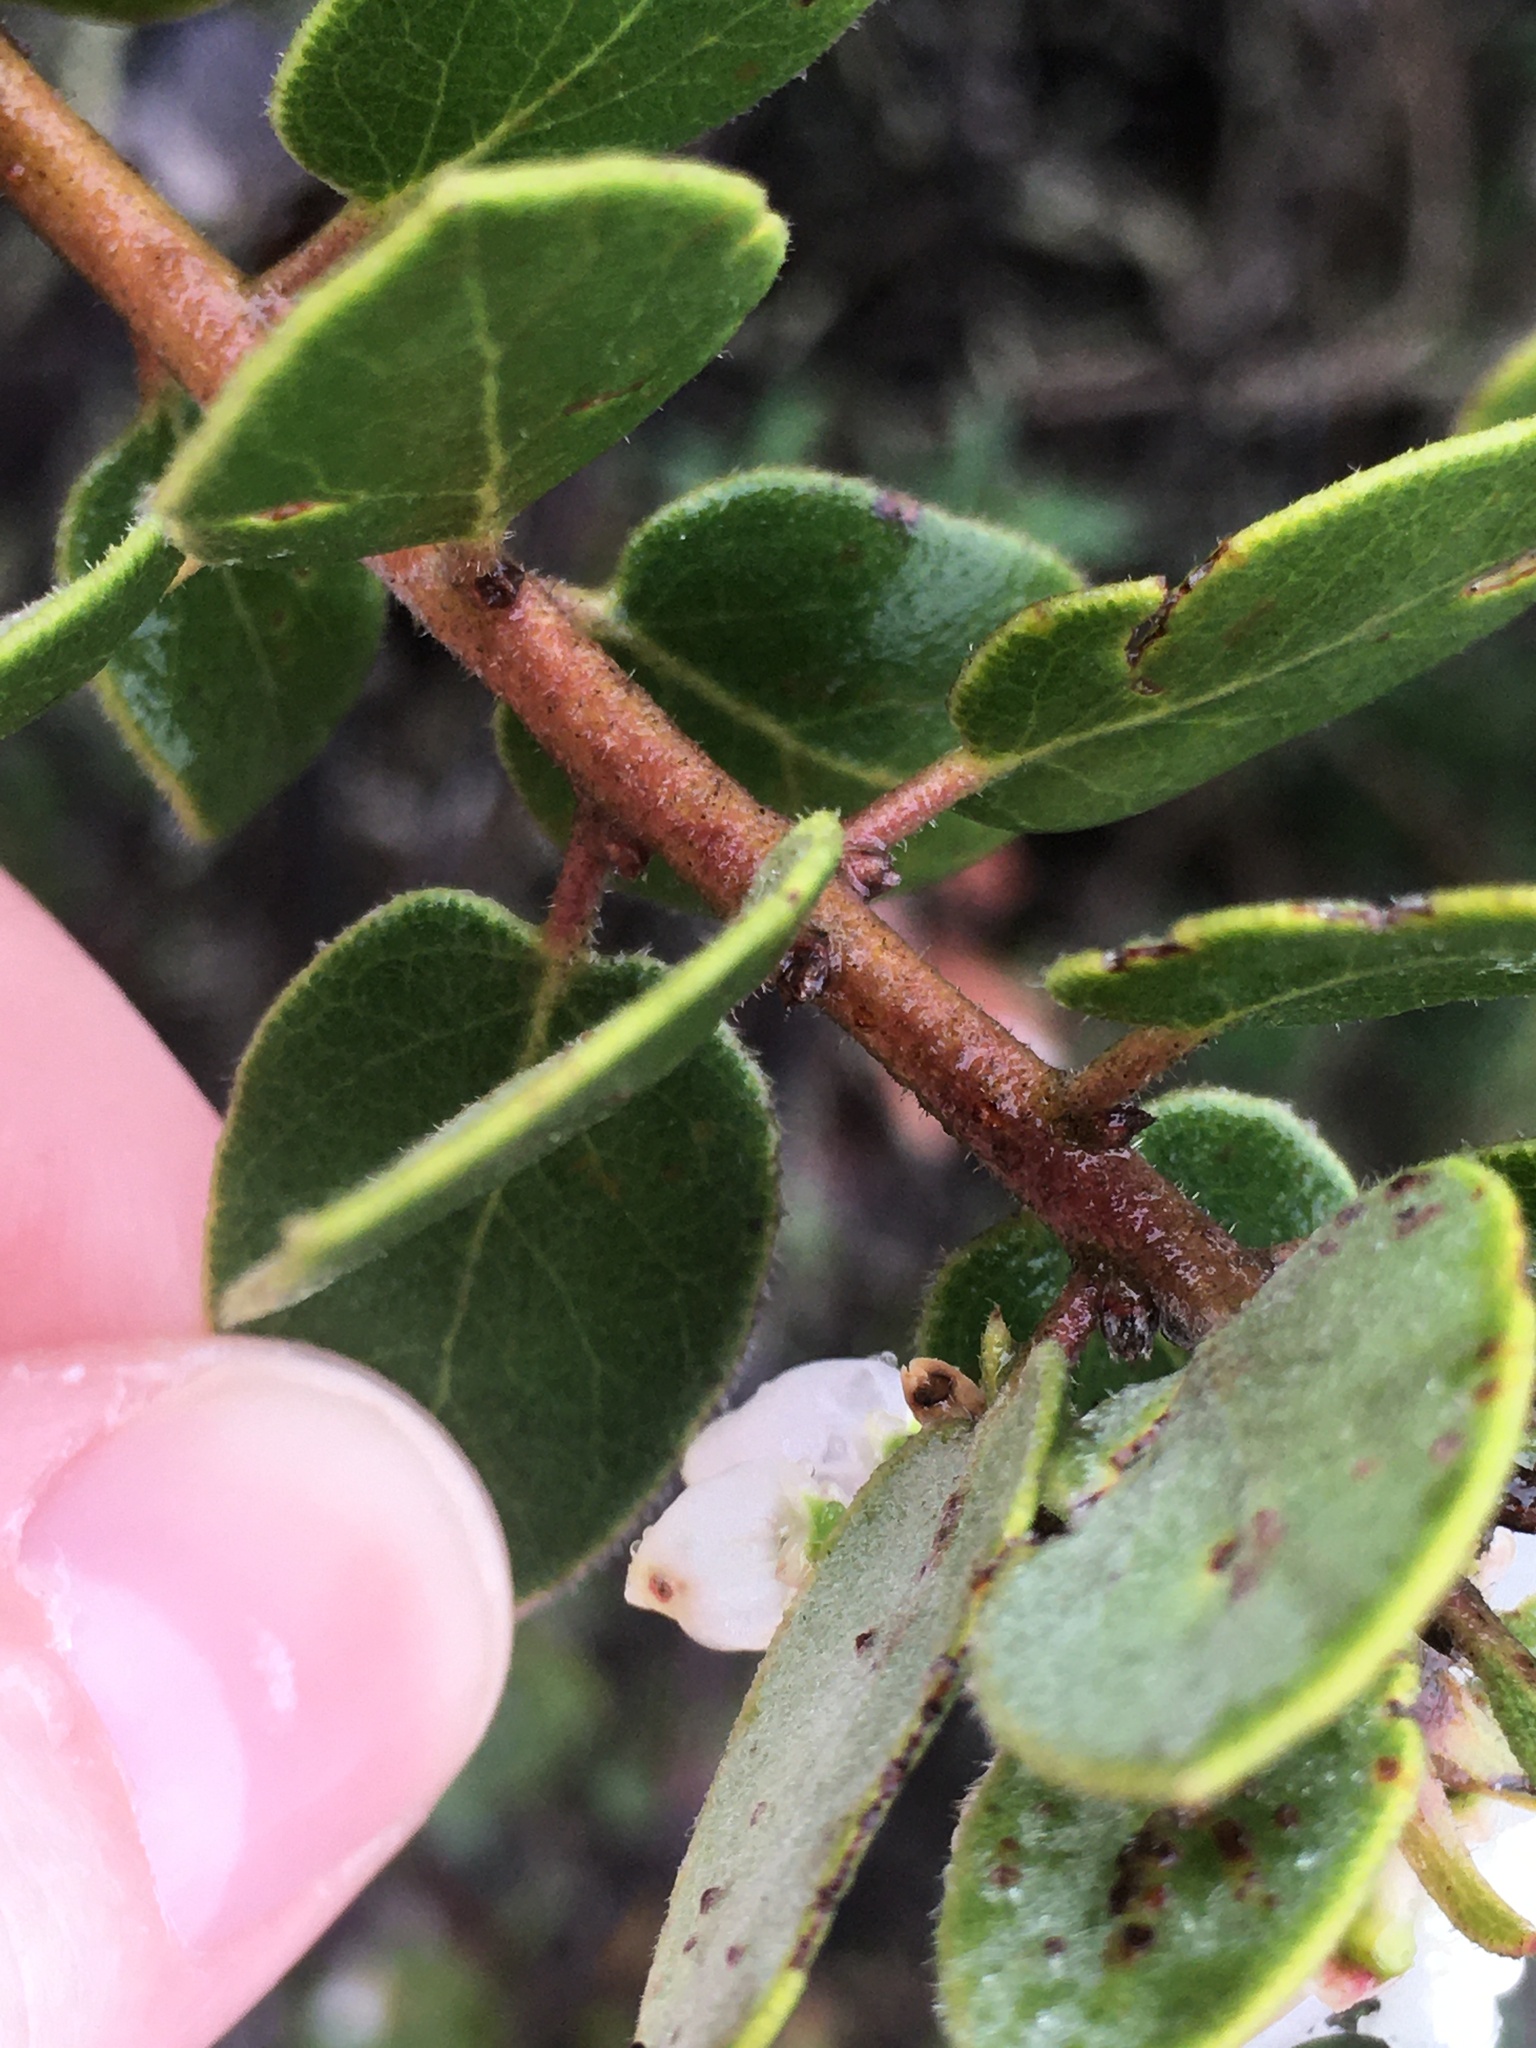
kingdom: Plantae
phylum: Tracheophyta
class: Magnoliopsida
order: Ericales
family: Ericaceae
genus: Arctostaphylos
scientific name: Arctostaphylos morroensis
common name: Morro manzanita
